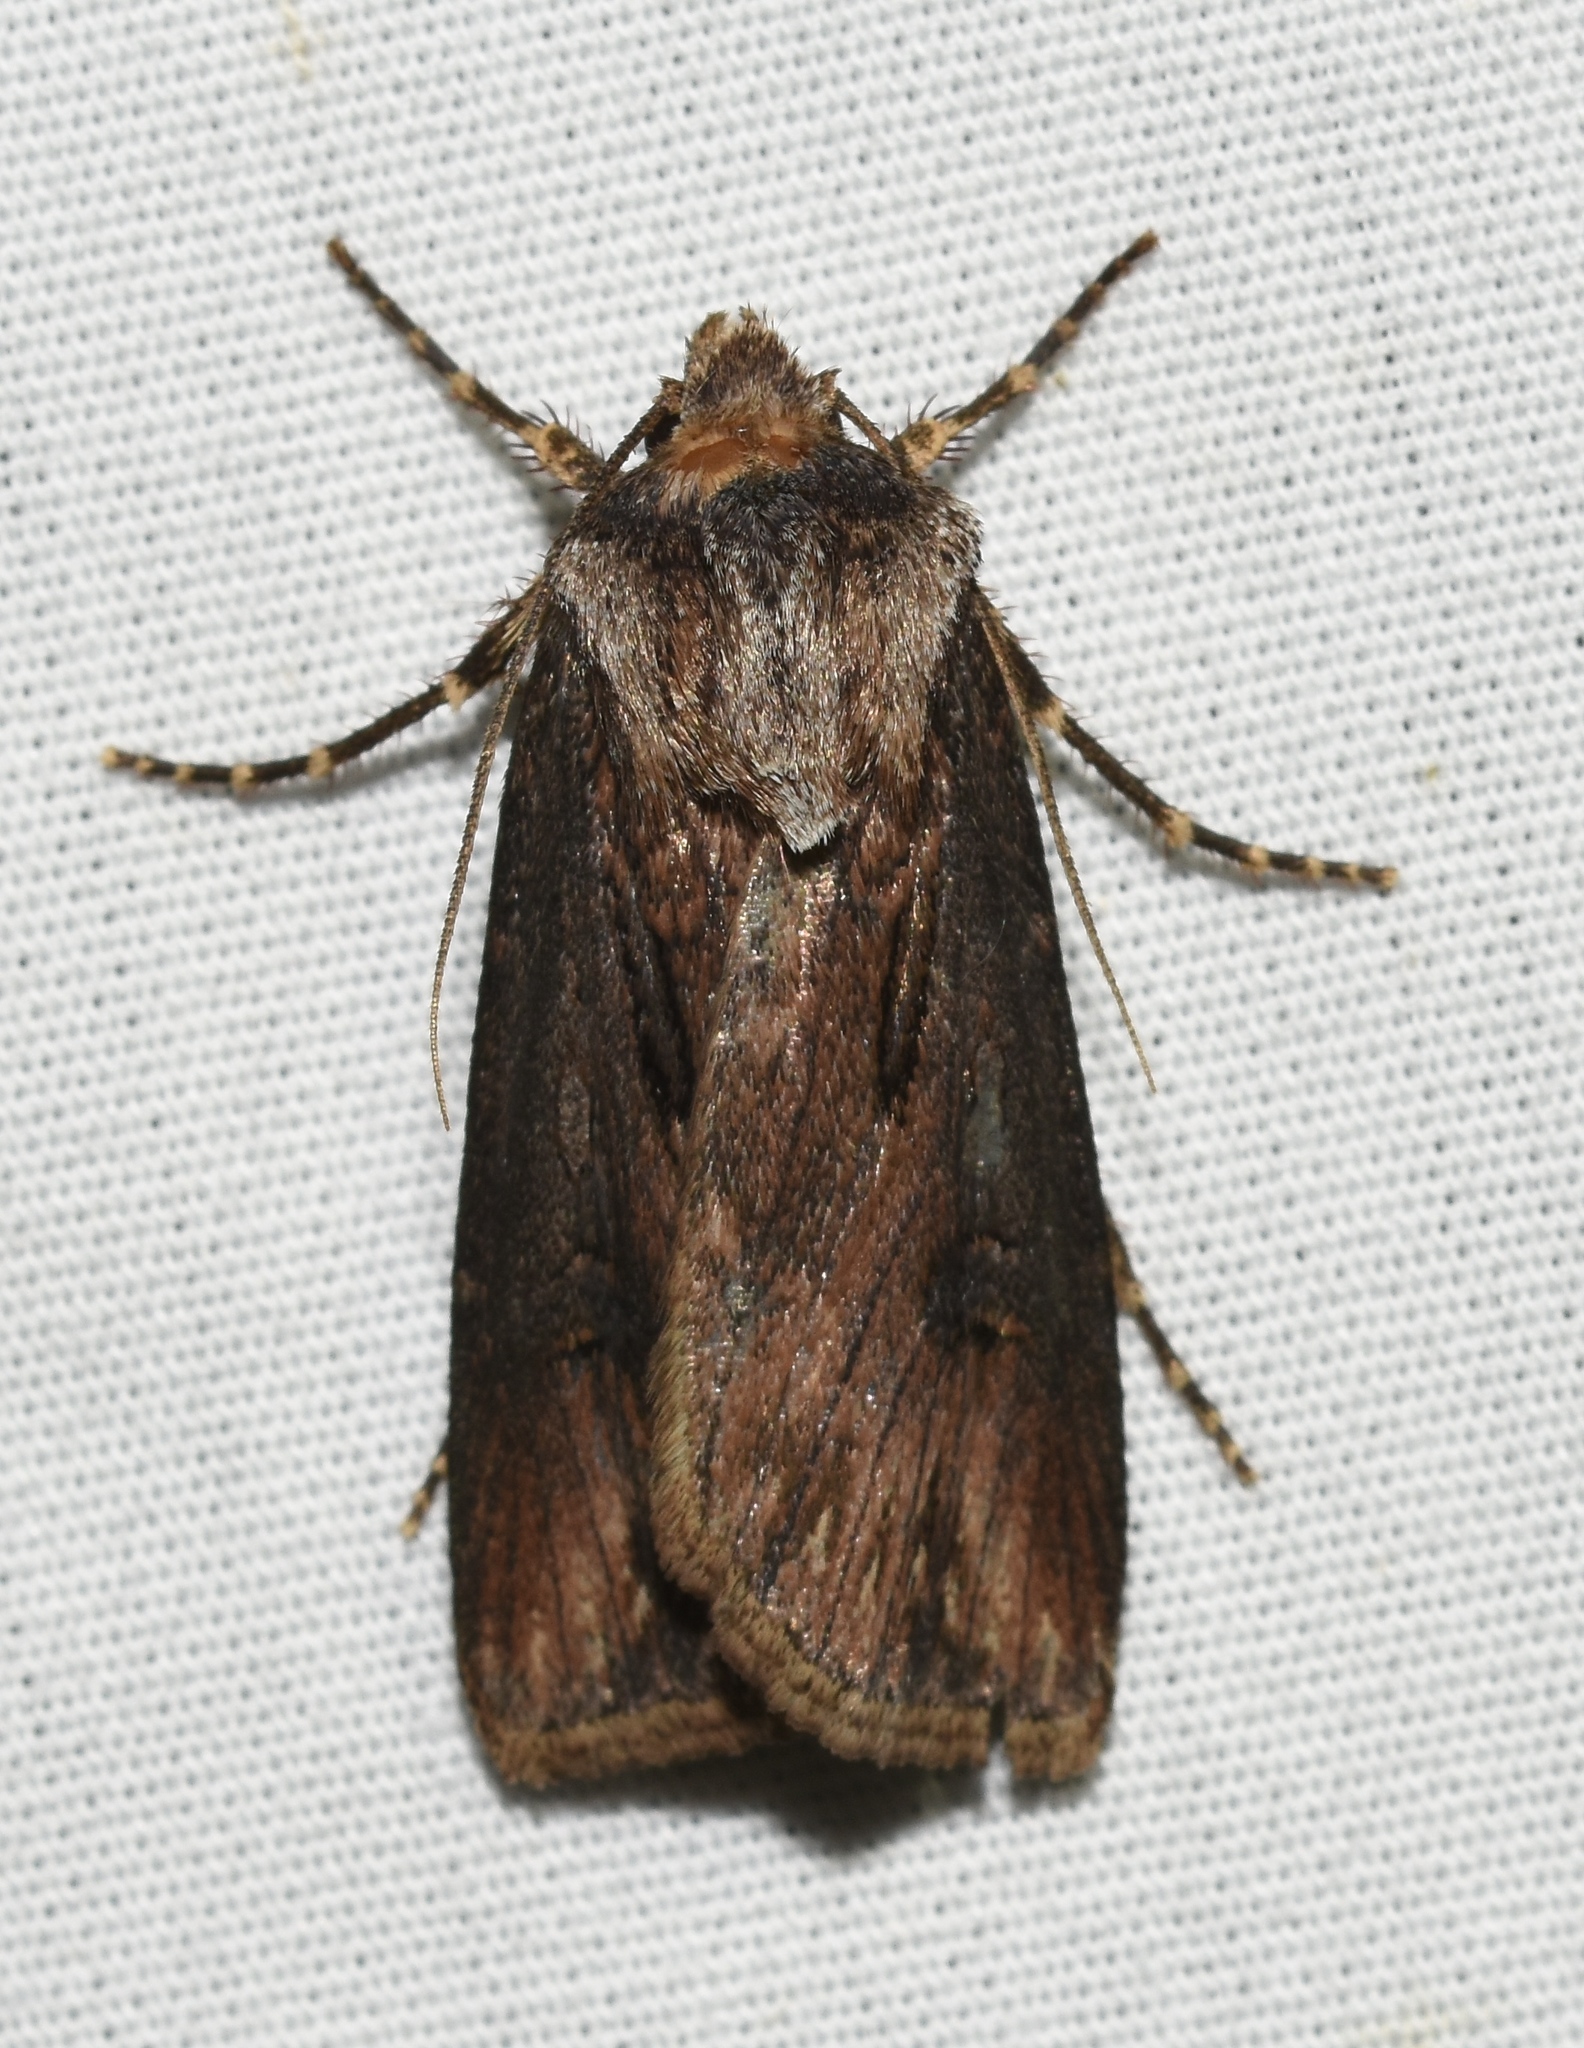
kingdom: Animalia
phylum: Arthropoda
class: Insecta
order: Lepidoptera
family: Noctuidae
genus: Agrotis
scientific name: Agrotis venerabilis
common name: Venerable dart
